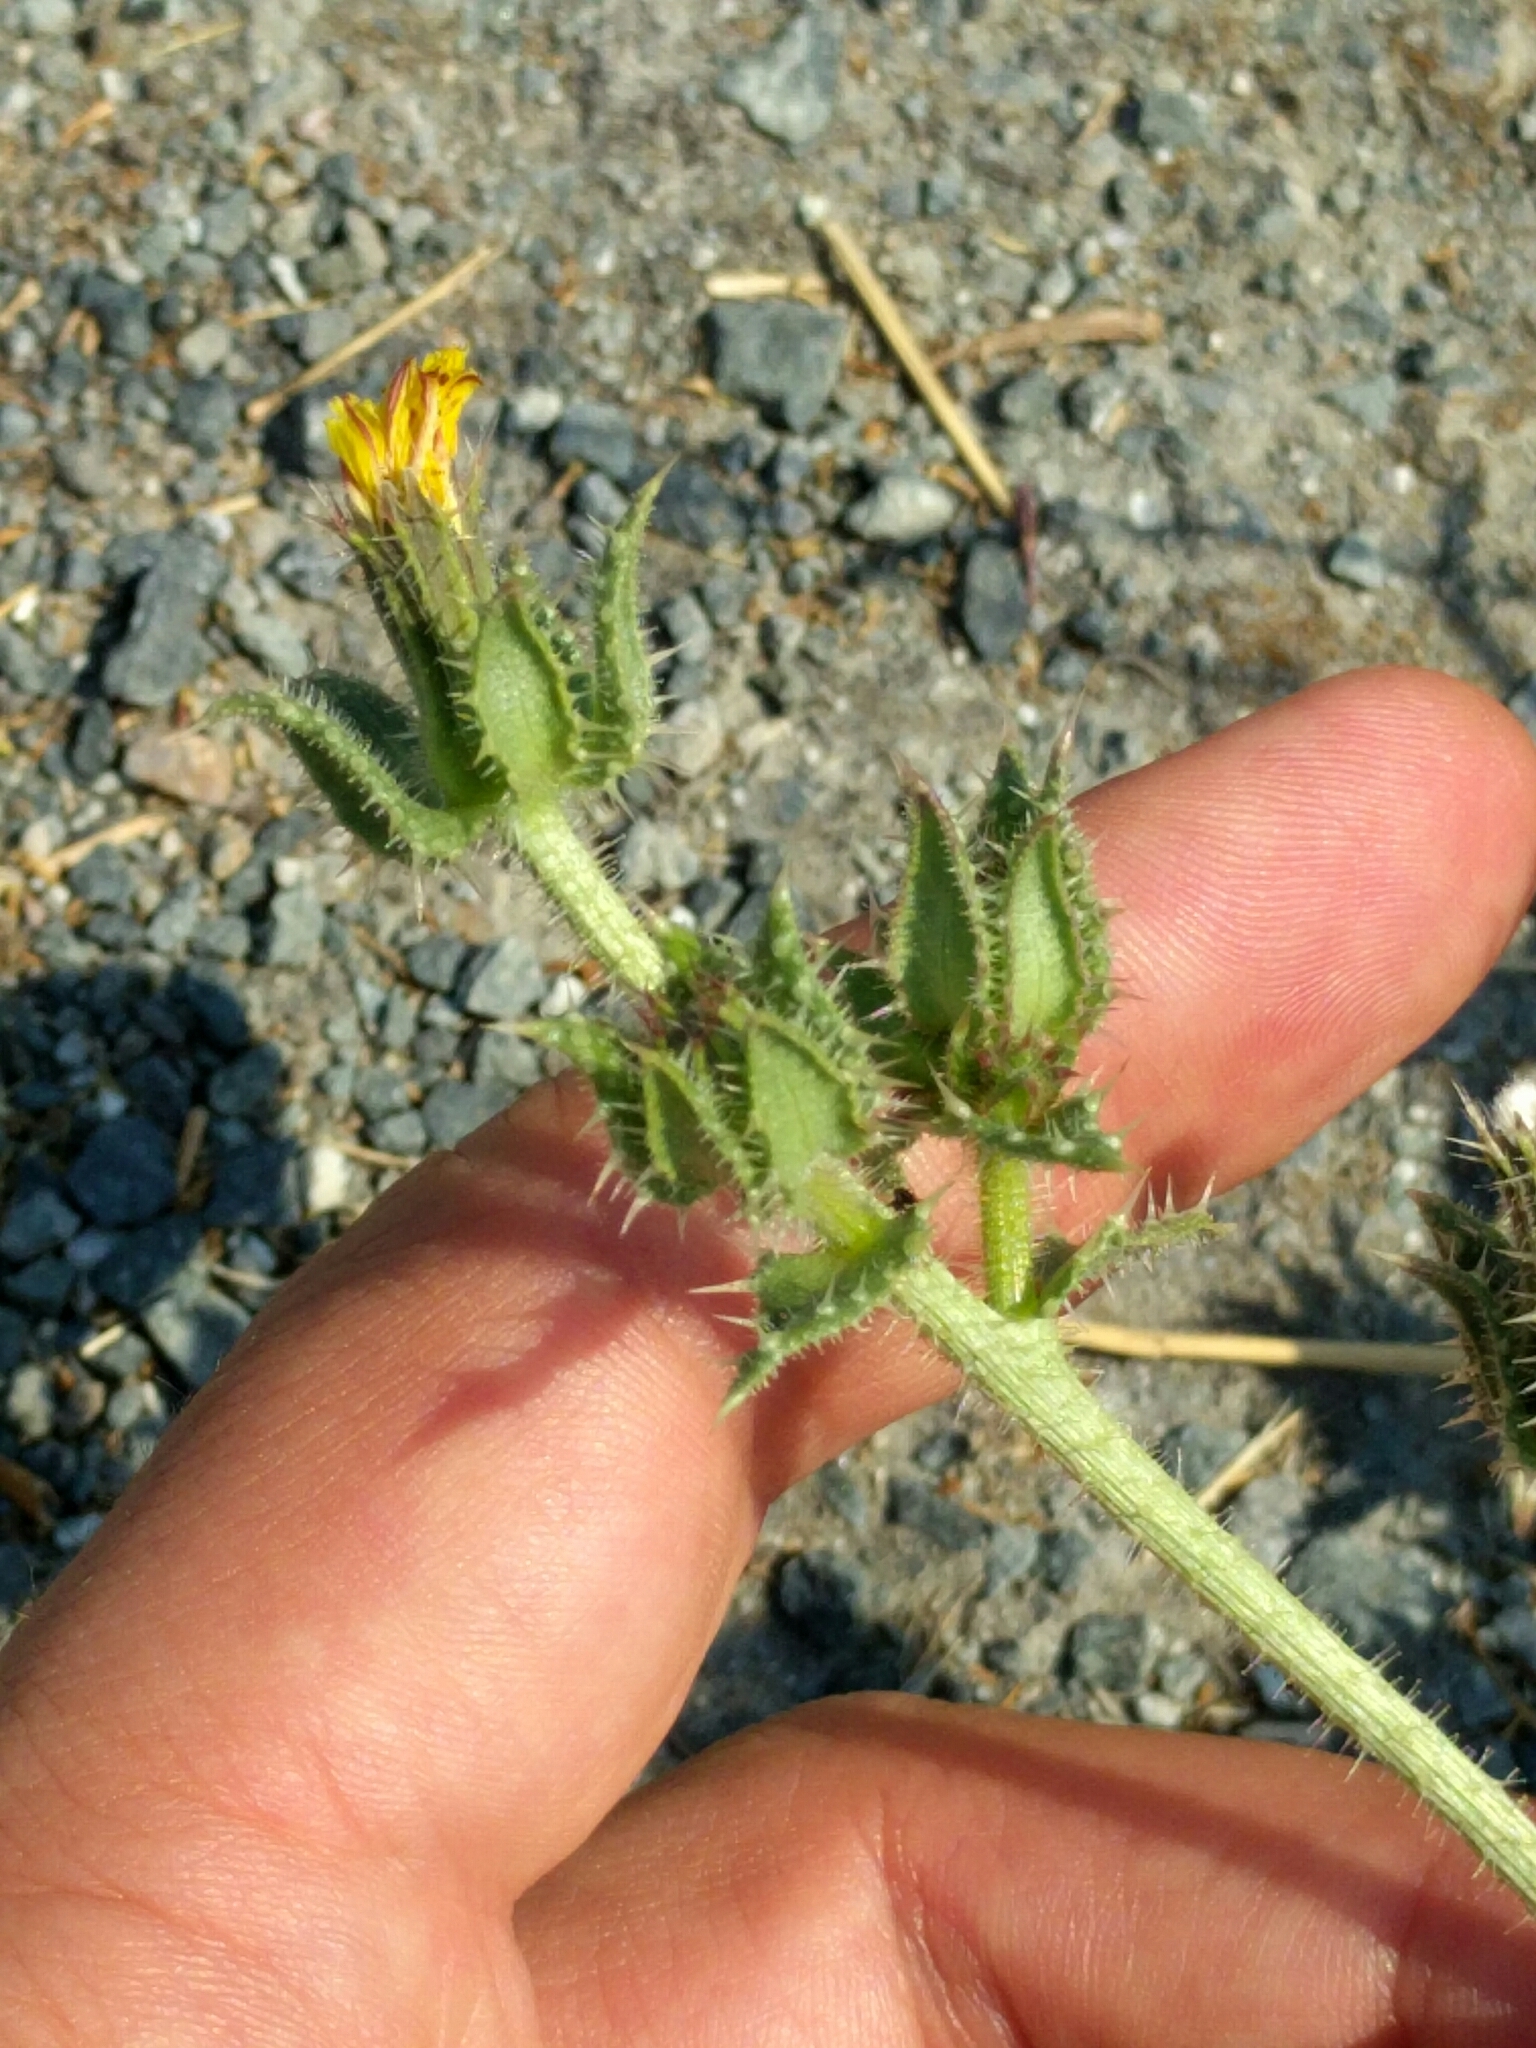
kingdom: Plantae
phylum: Tracheophyta
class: Magnoliopsida
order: Asterales
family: Asteraceae
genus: Helminthotheca
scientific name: Helminthotheca echioides
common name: Ox-tongue
